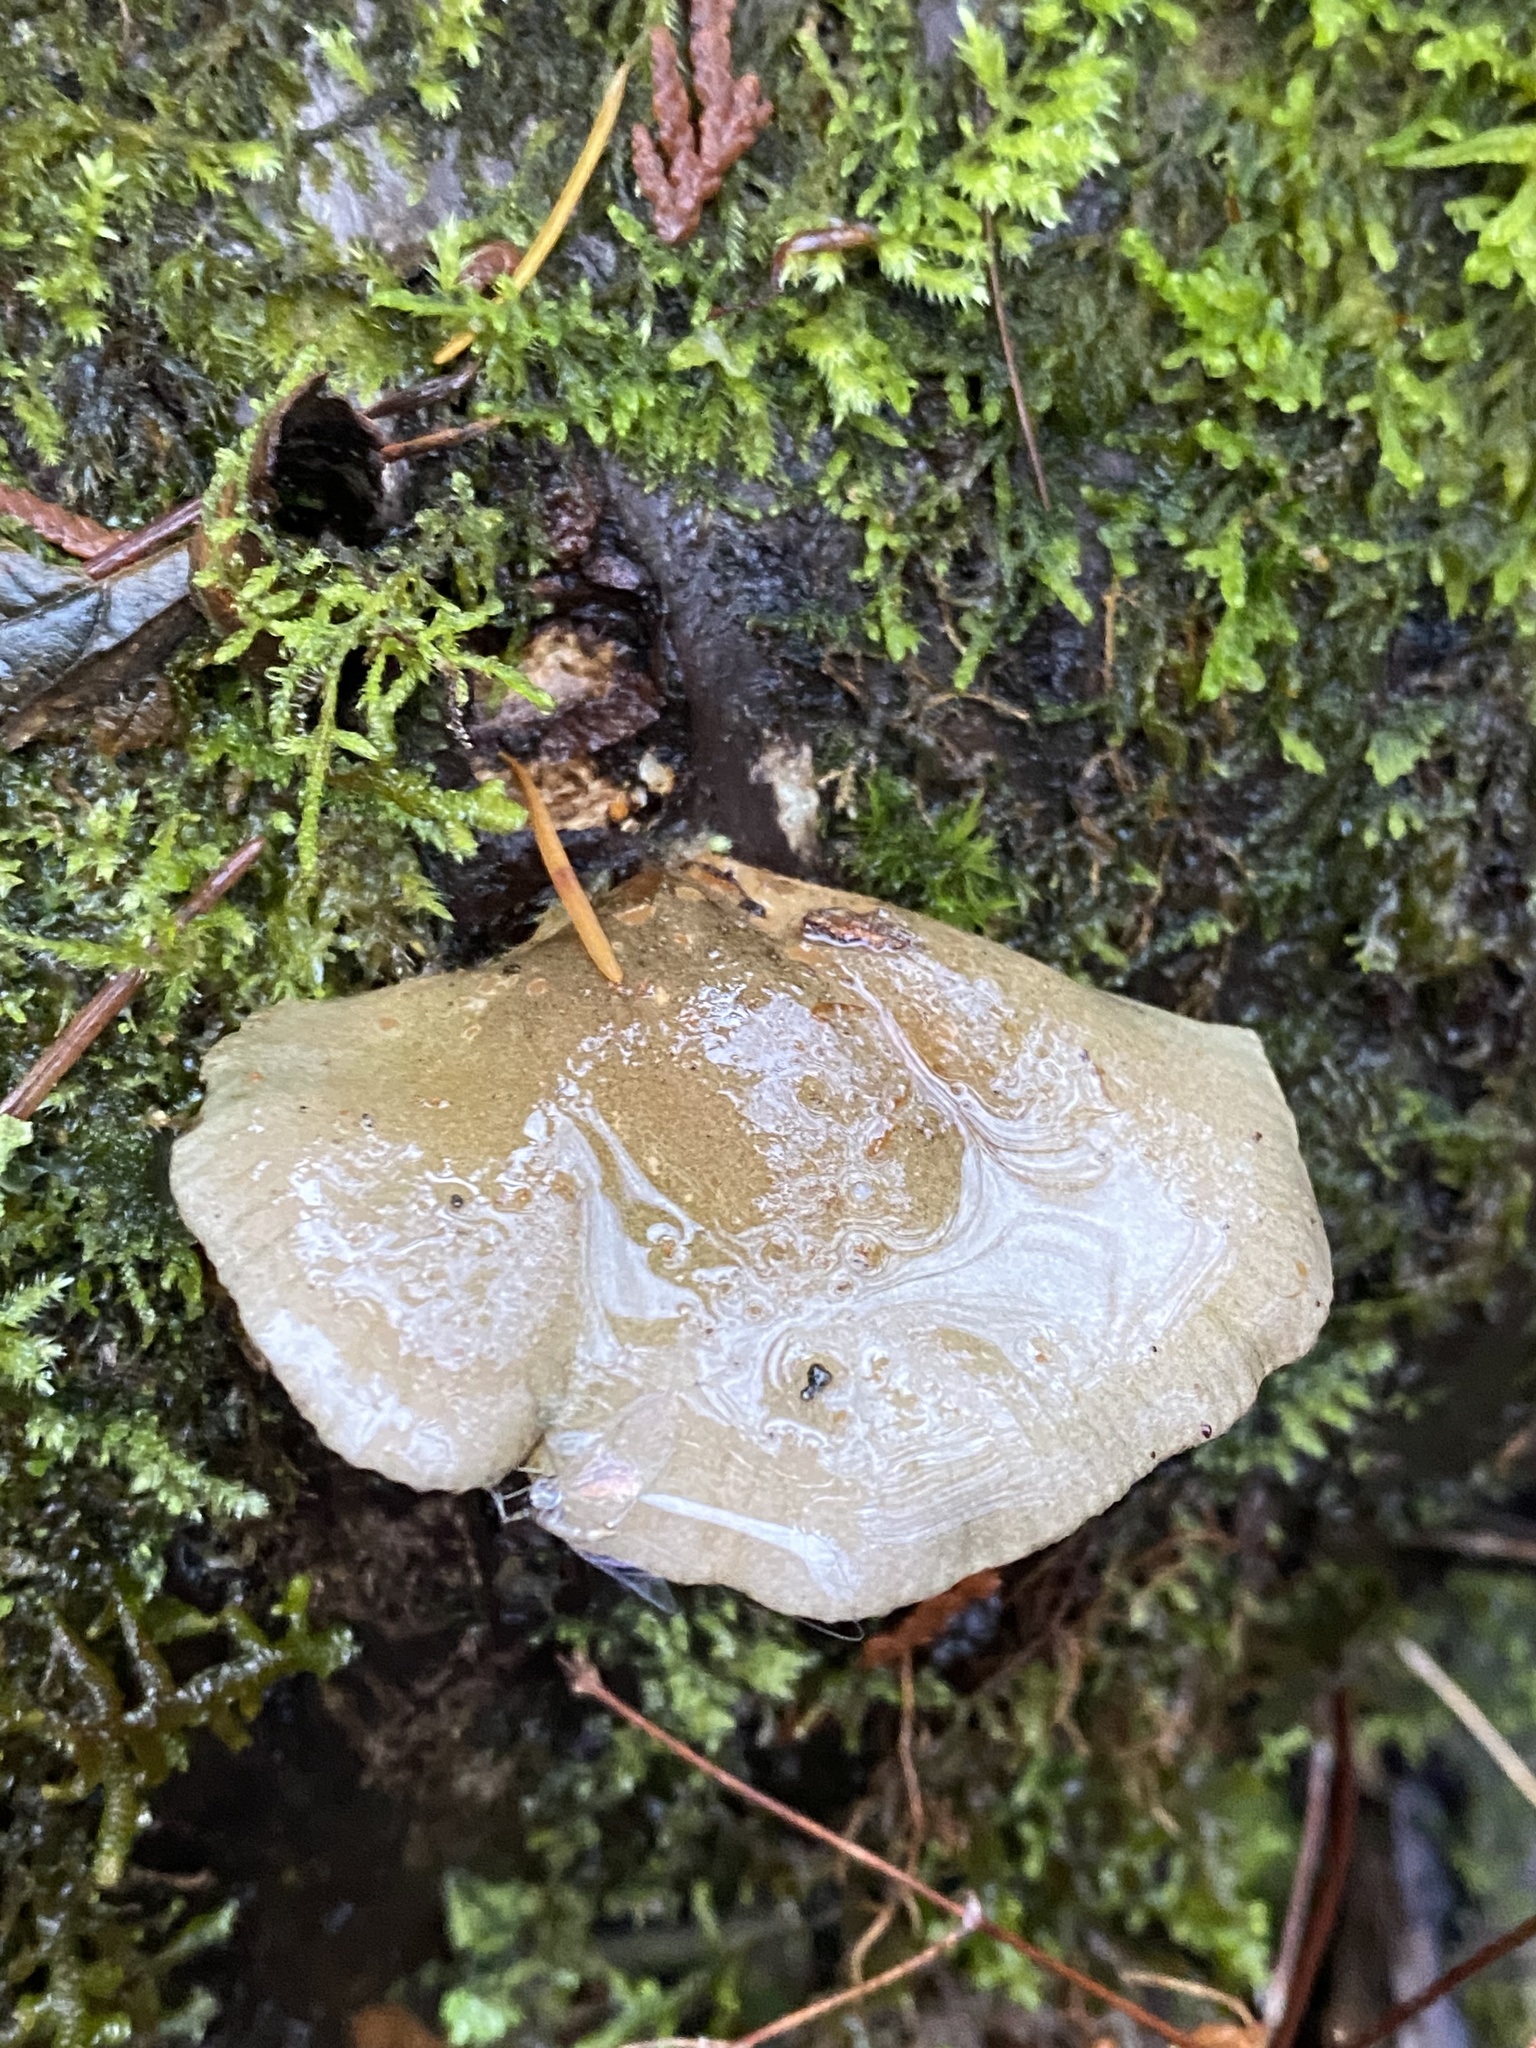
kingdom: Fungi
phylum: Basidiomycota
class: Agaricomycetes
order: Agaricales
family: Sarcomyxaceae
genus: Sarcomyxa
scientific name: Sarcomyxa serotina
